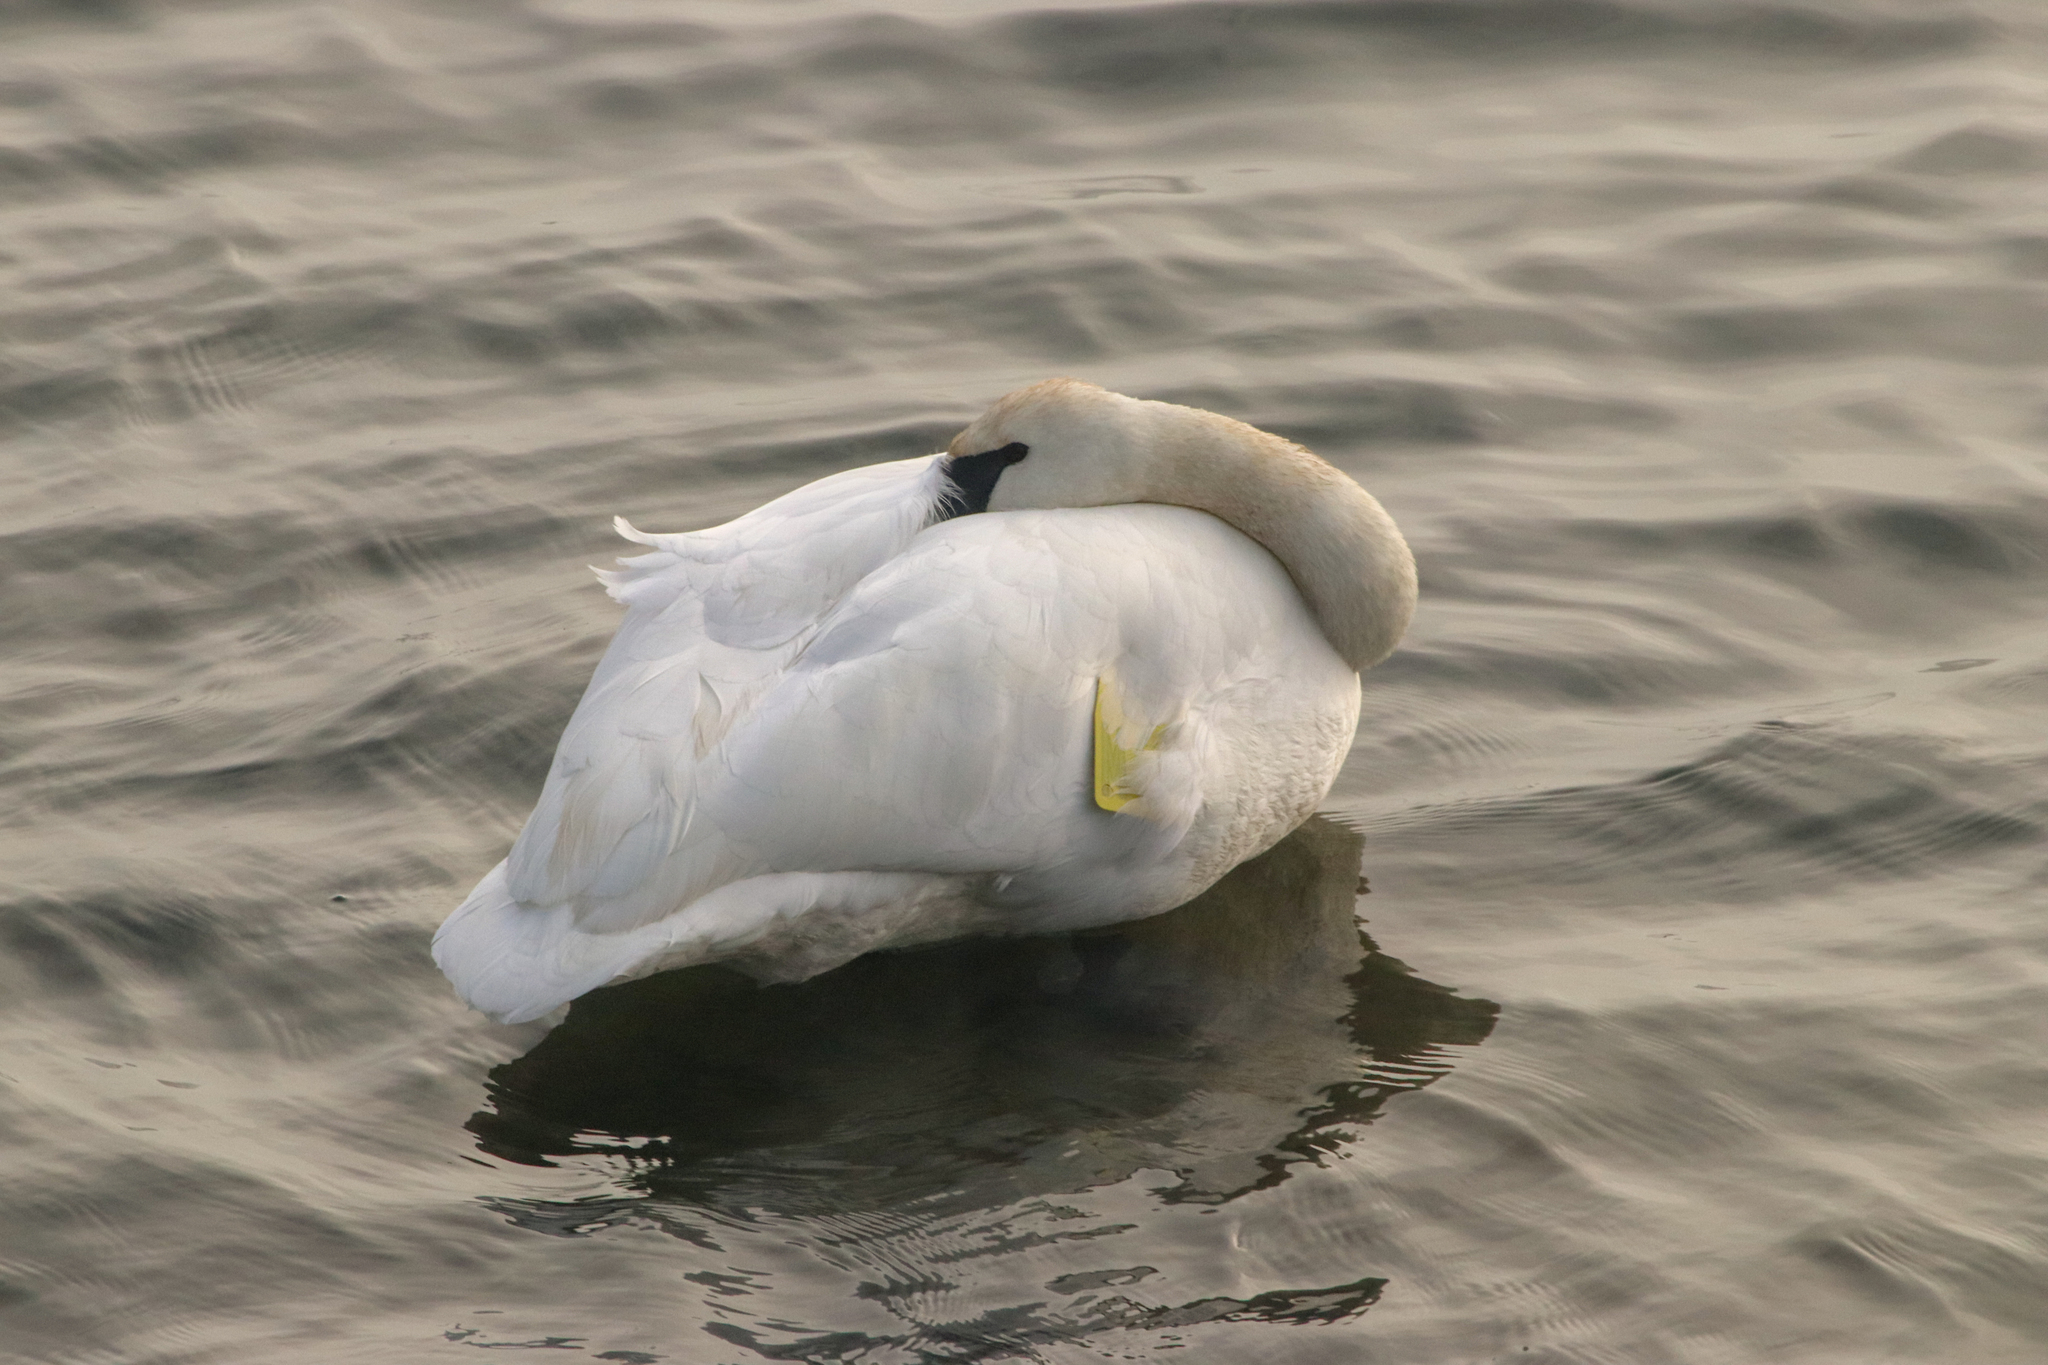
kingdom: Animalia
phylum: Chordata
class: Aves
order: Anseriformes
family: Anatidae
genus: Cygnus
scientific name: Cygnus buccinator
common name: Trumpeter swan
